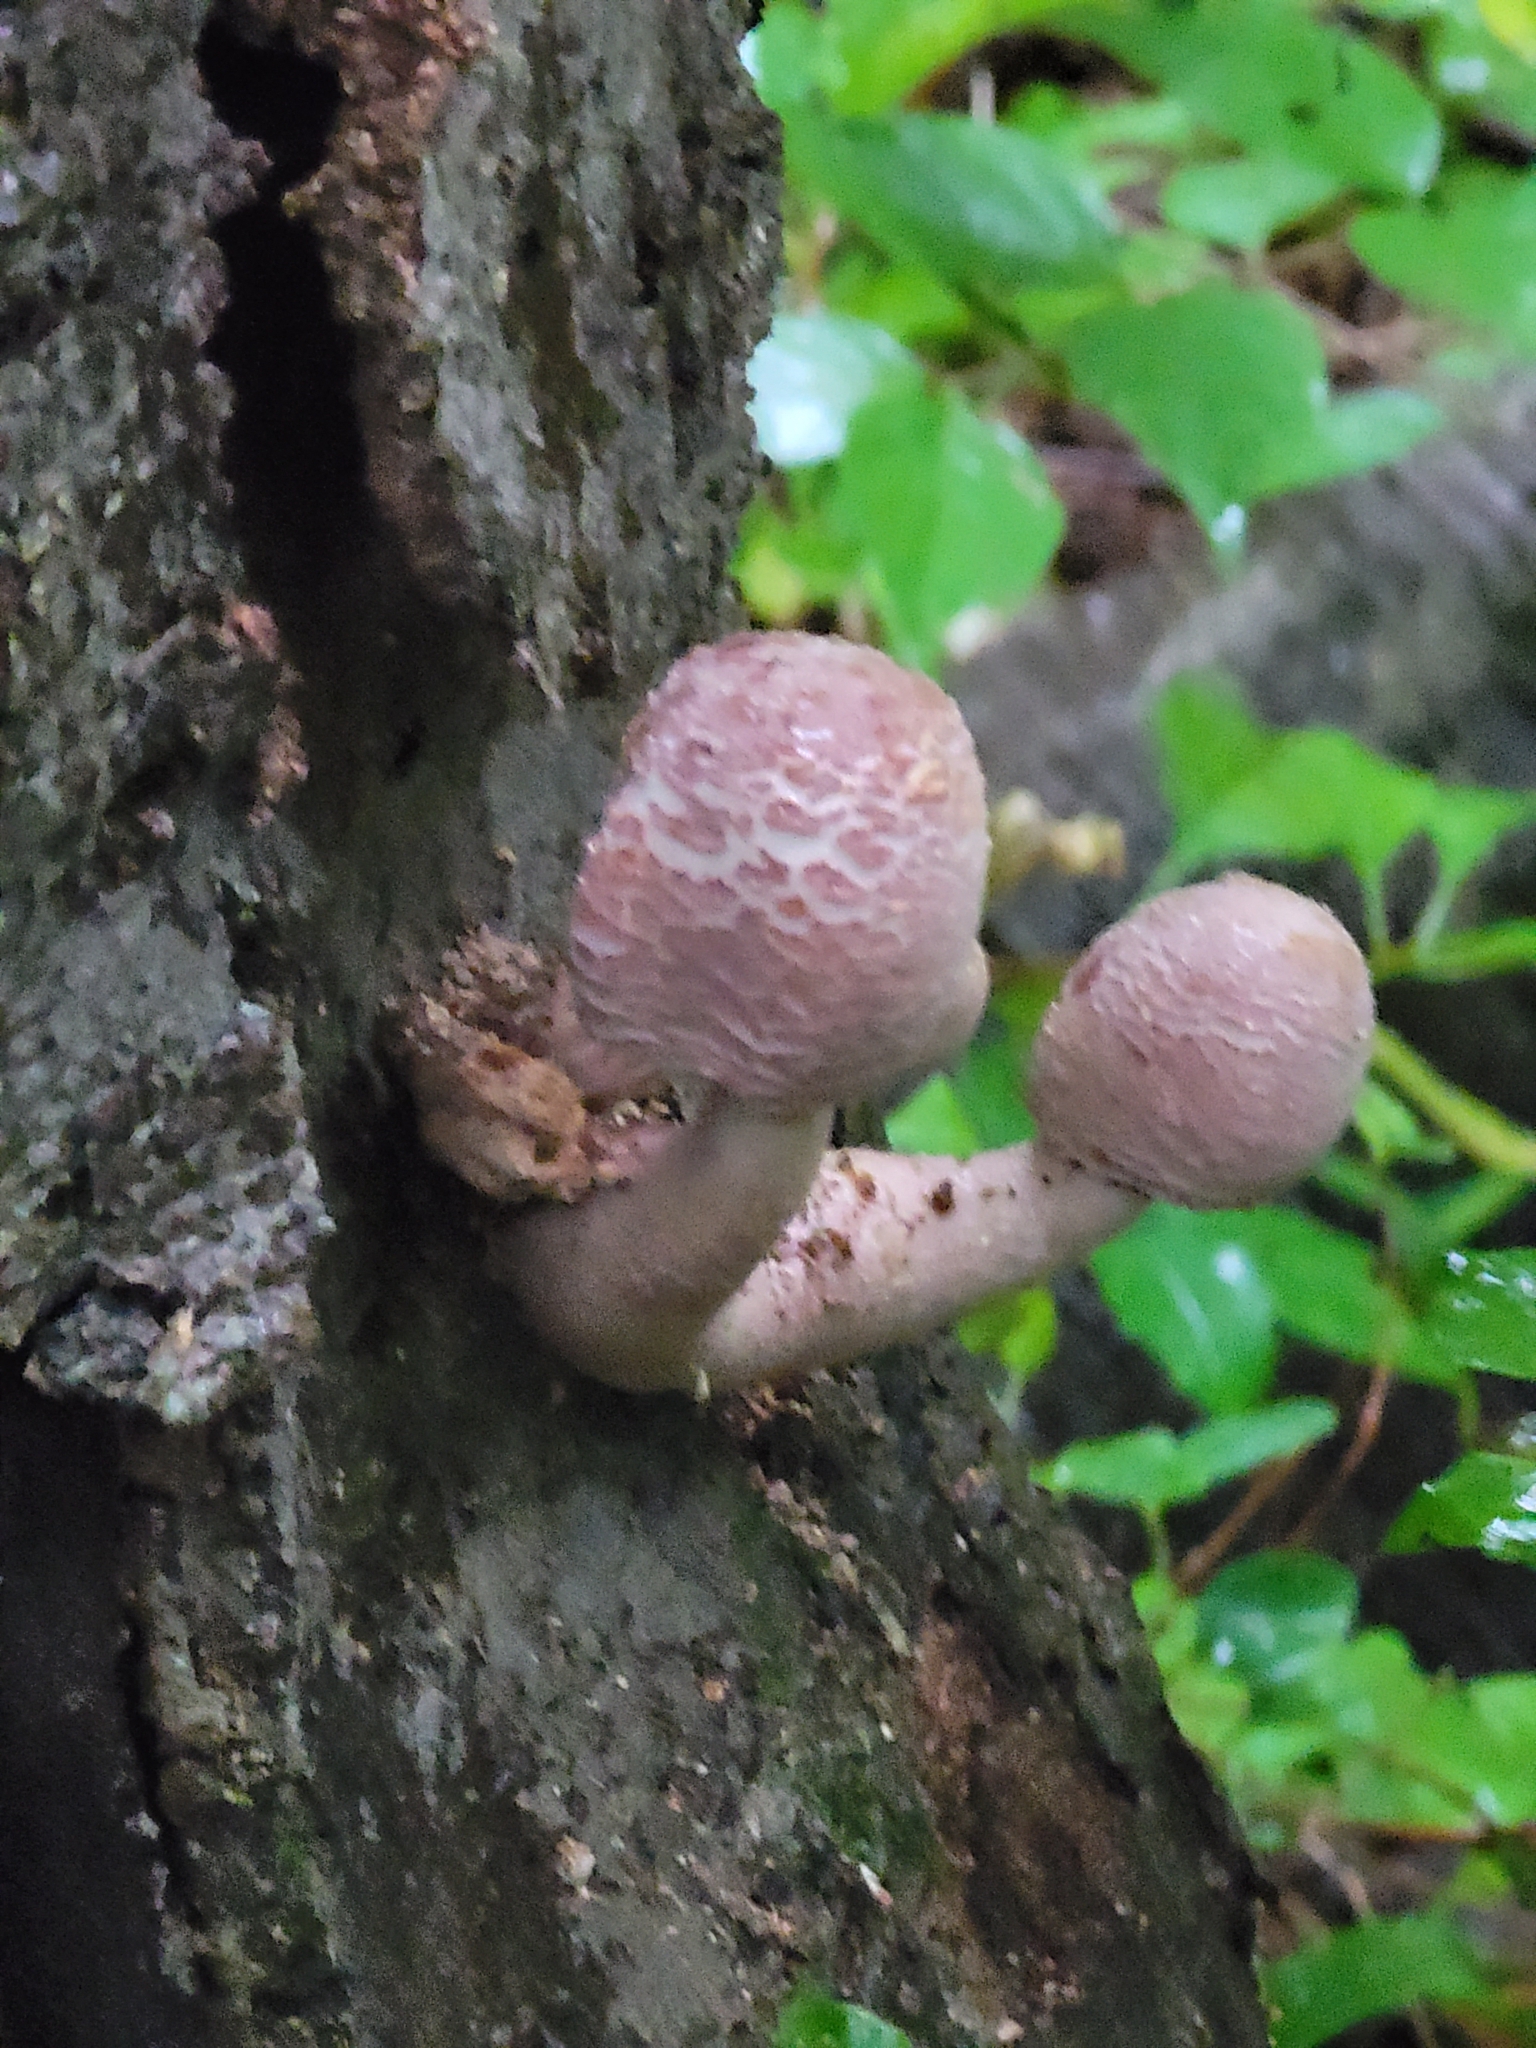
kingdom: Fungi
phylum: Basidiomycota
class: Agaricomycetes
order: Agaricales
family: Agaricaceae
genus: Leucoagaricus
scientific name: Leucoagaricus americanus
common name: Reddening lepiota
